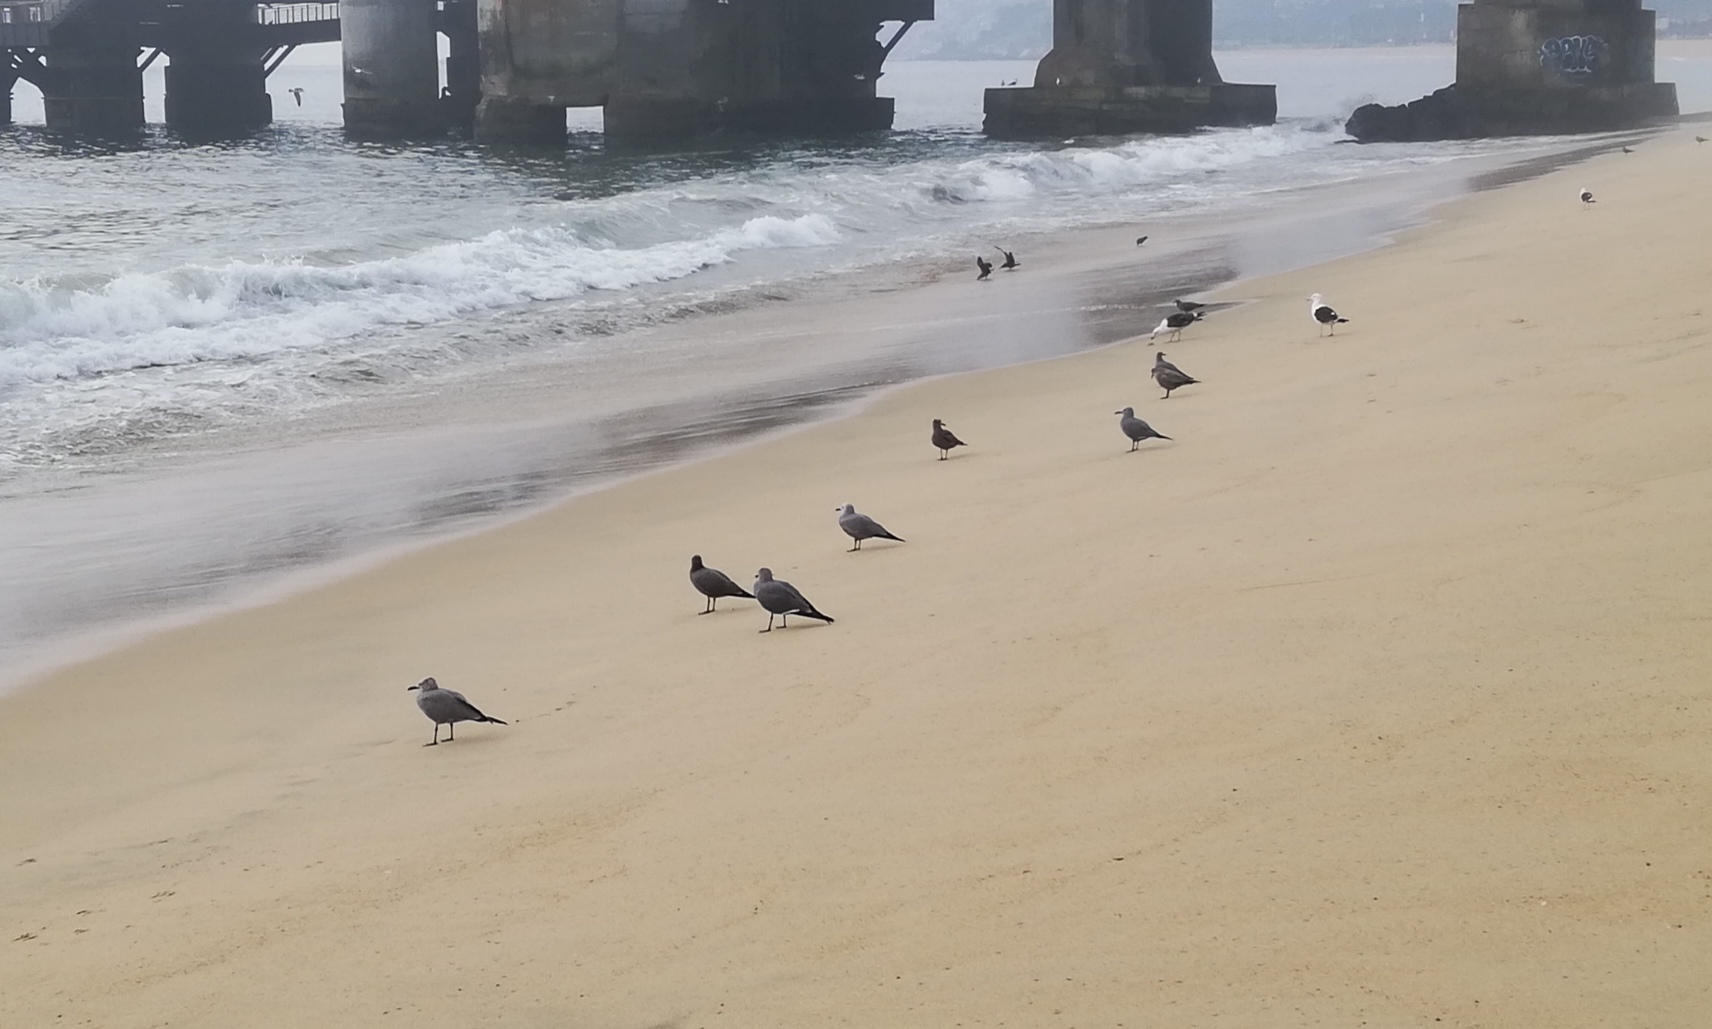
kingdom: Animalia
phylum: Chordata
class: Aves
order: Charadriiformes
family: Laridae
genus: Leucophaeus
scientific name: Leucophaeus modestus
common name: Gray gull
